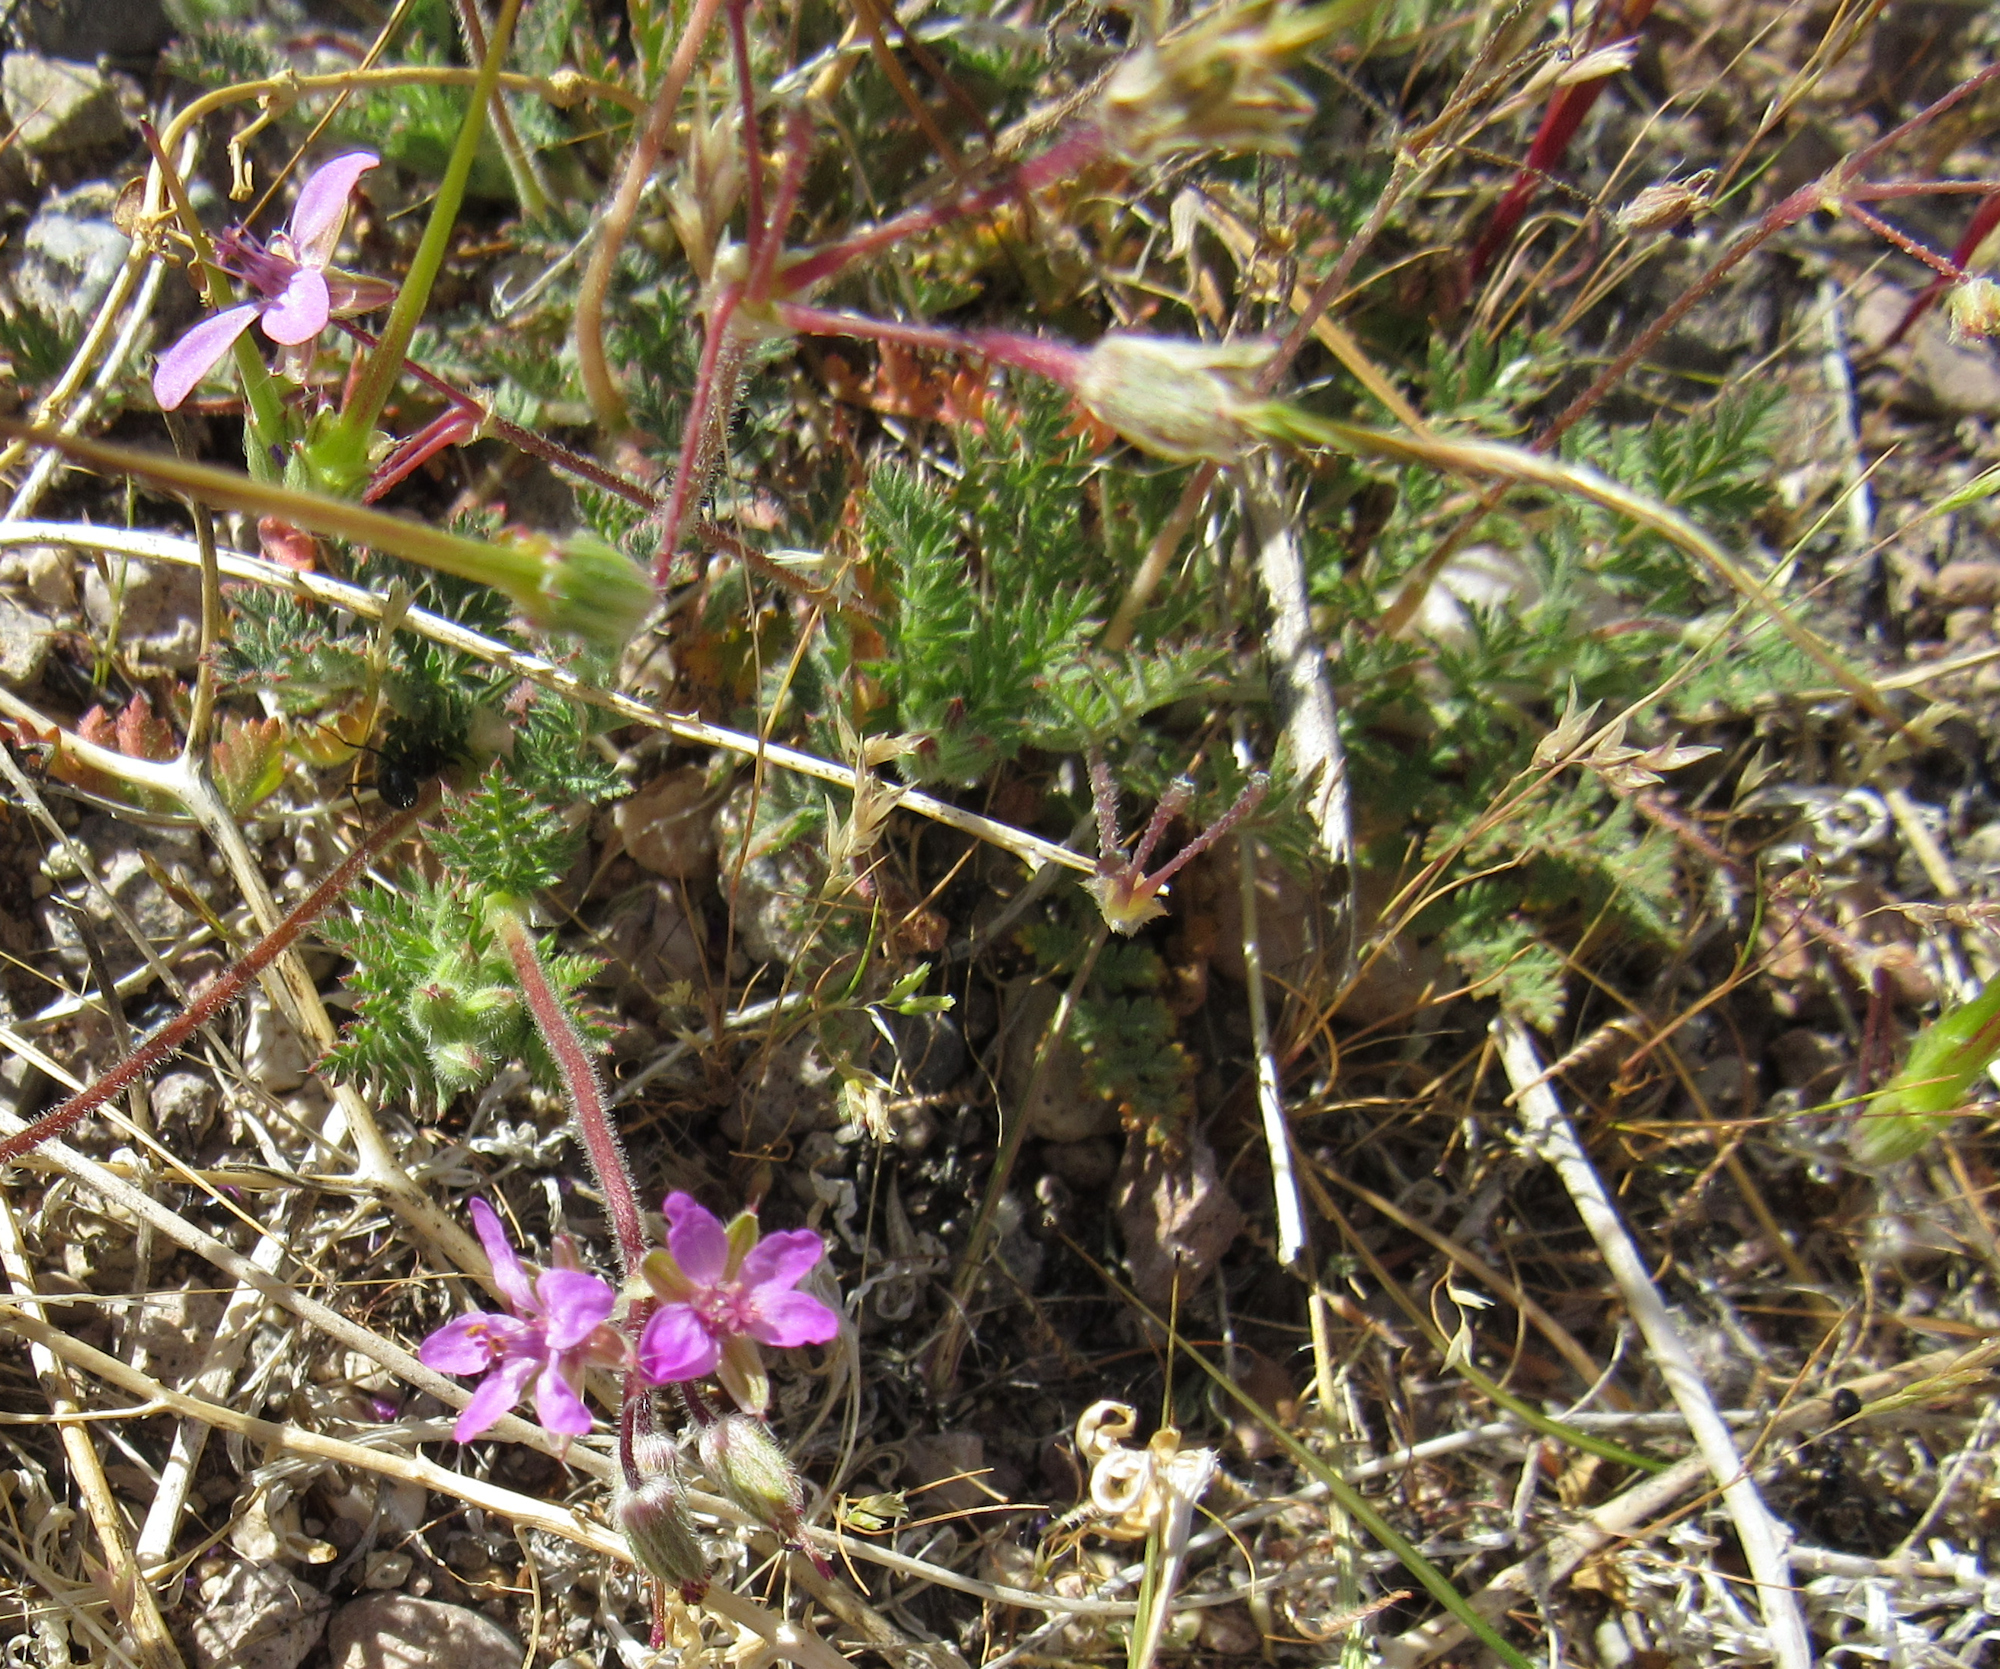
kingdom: Plantae
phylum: Tracheophyta
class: Magnoliopsida
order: Geraniales
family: Geraniaceae
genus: Erodium
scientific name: Erodium cicutarium
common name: Common stork's-bill
